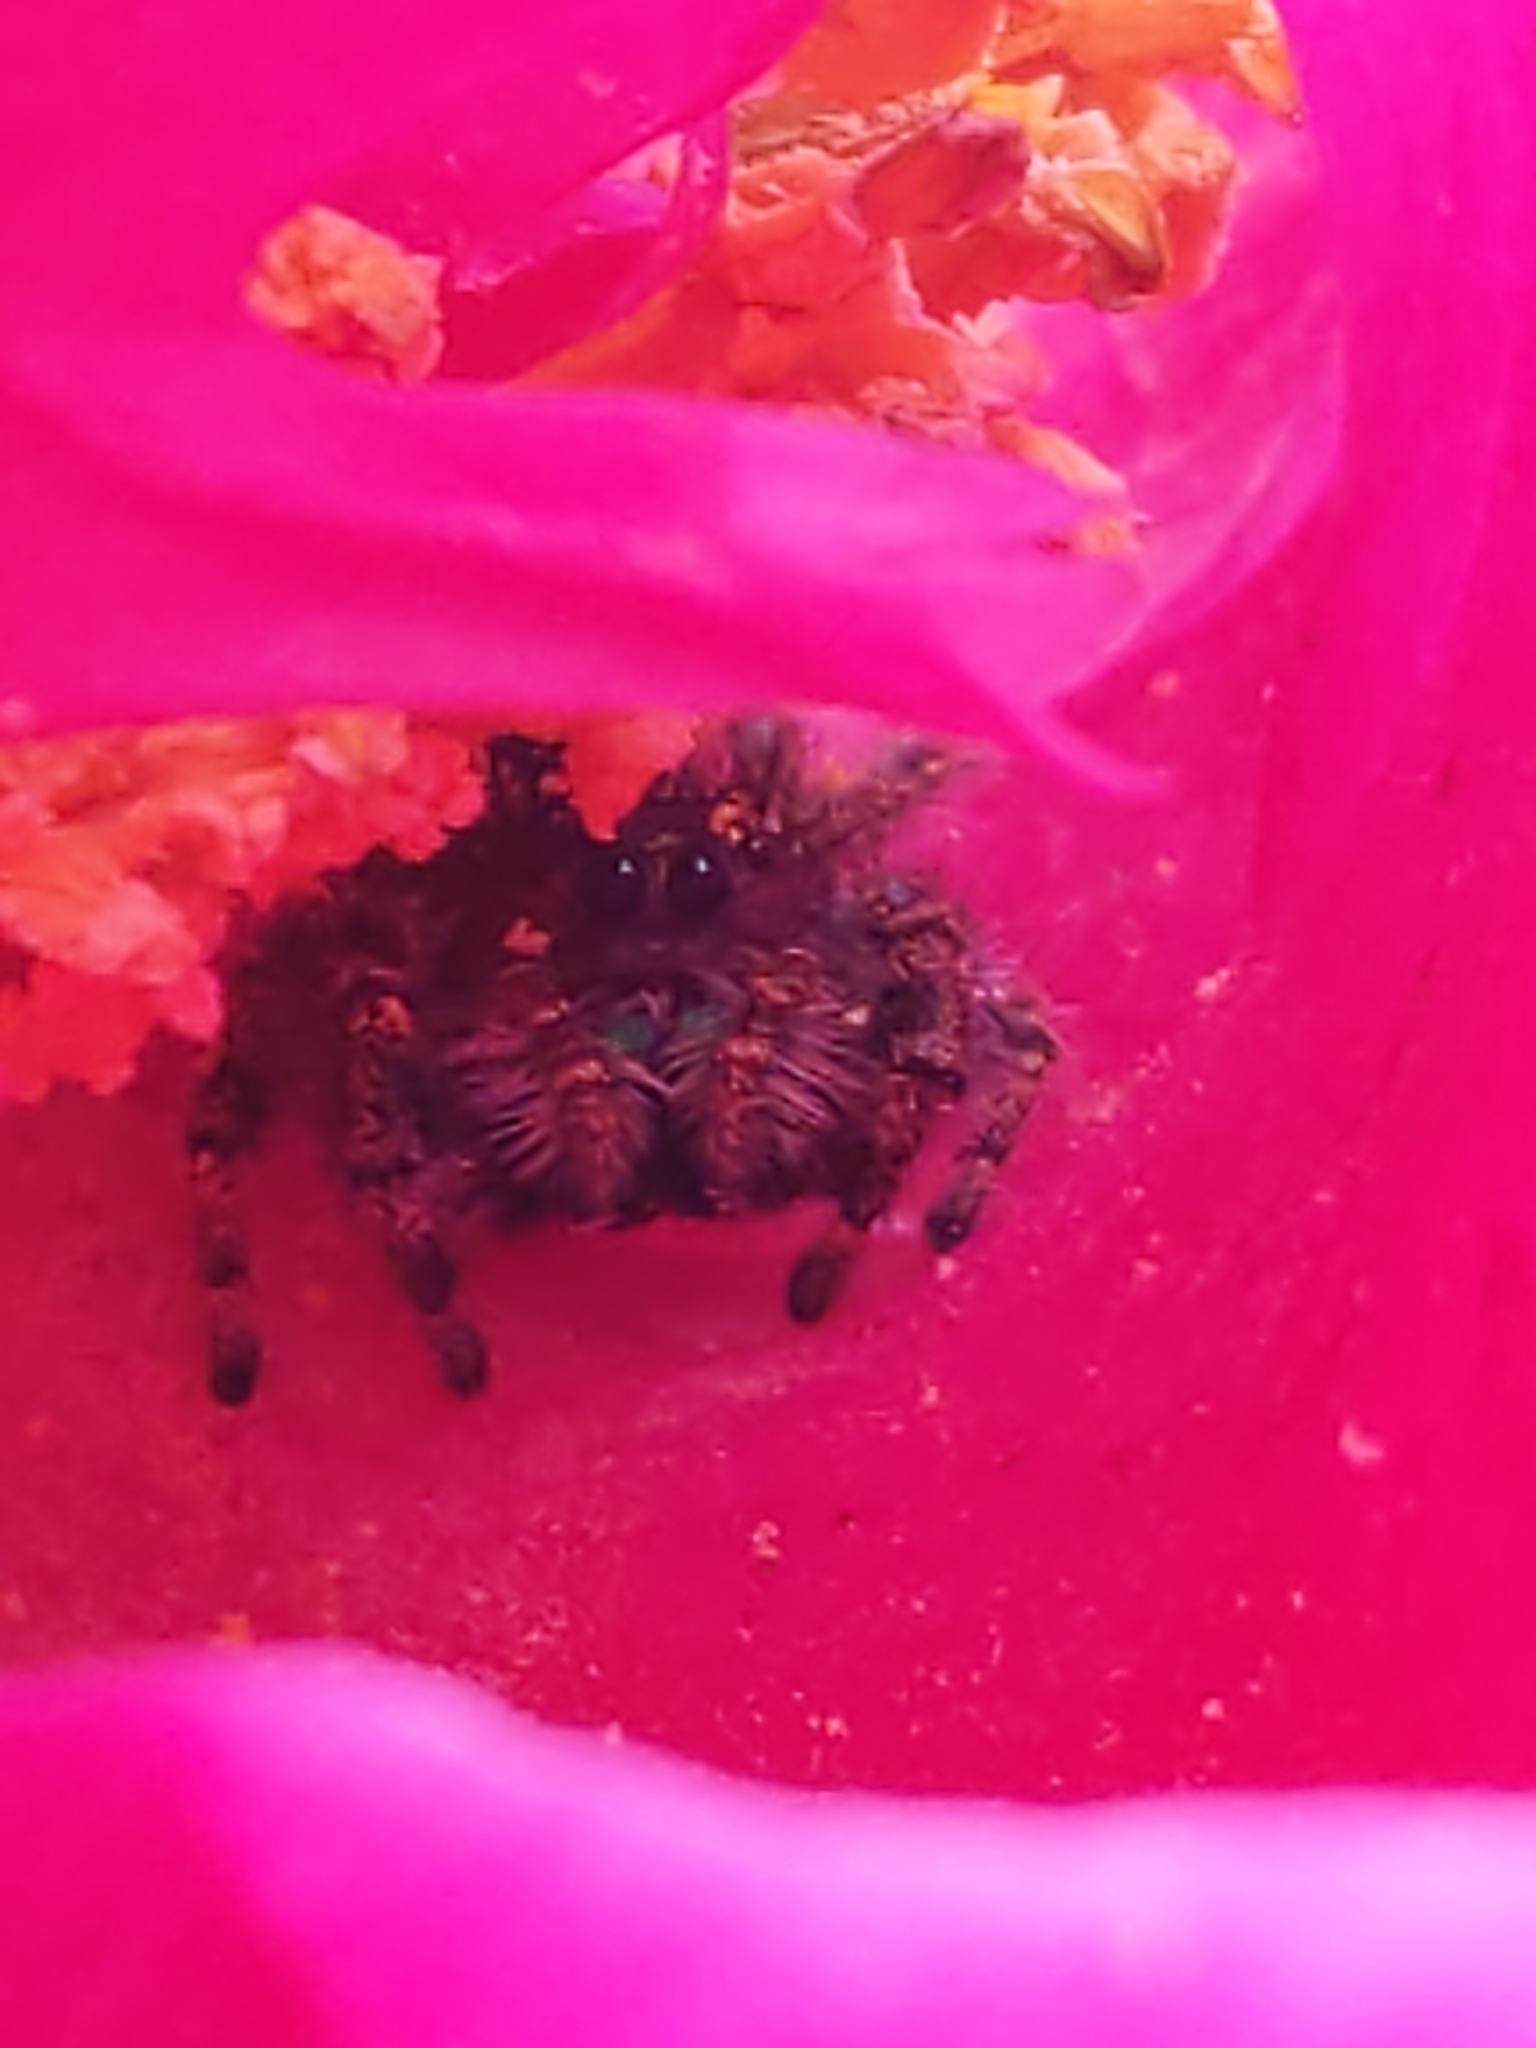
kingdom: Animalia
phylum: Arthropoda
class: Arachnida
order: Araneae
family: Salticidae
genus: Phidippus
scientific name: Phidippus audax
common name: Bold jumper
